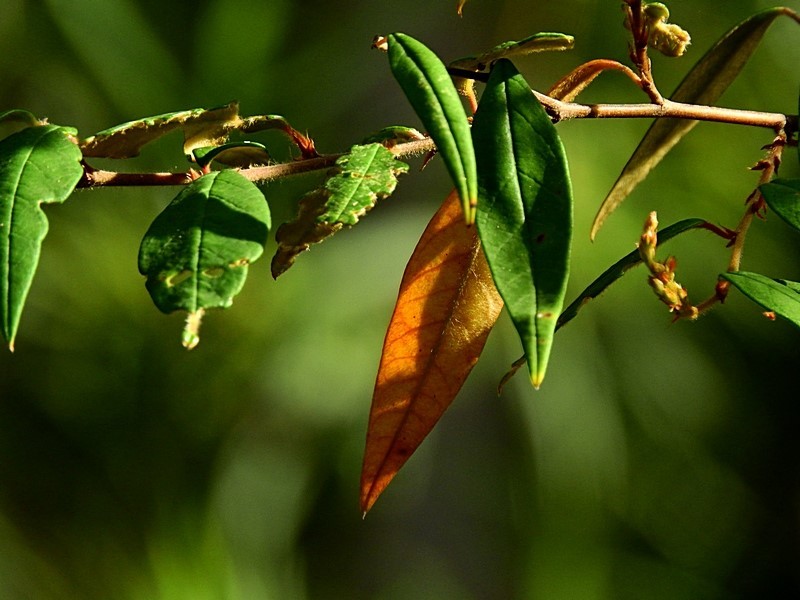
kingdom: Plantae
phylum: Tracheophyta
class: Magnoliopsida
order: Rosales
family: Rhamnaceae
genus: Pomaderris
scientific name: Pomaderris ligustrina
